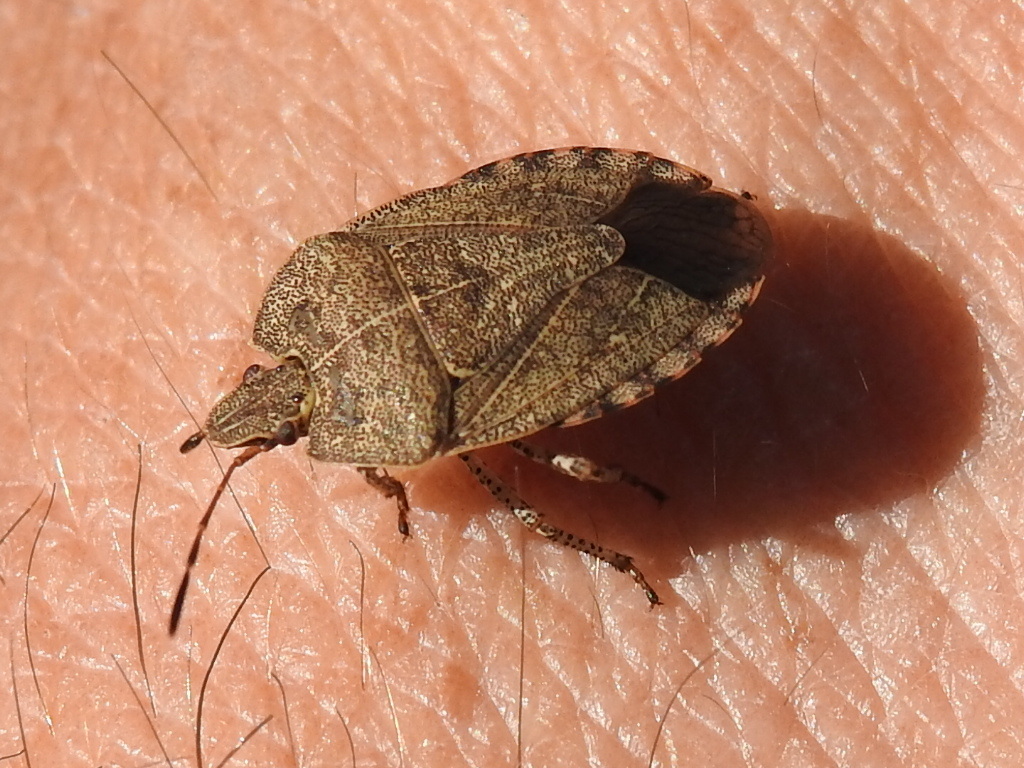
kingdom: Animalia
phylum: Arthropoda
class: Insecta
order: Hemiptera
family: Pentatomidae
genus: Menecles
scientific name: Menecles insertus
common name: Elf shoe stink bug
